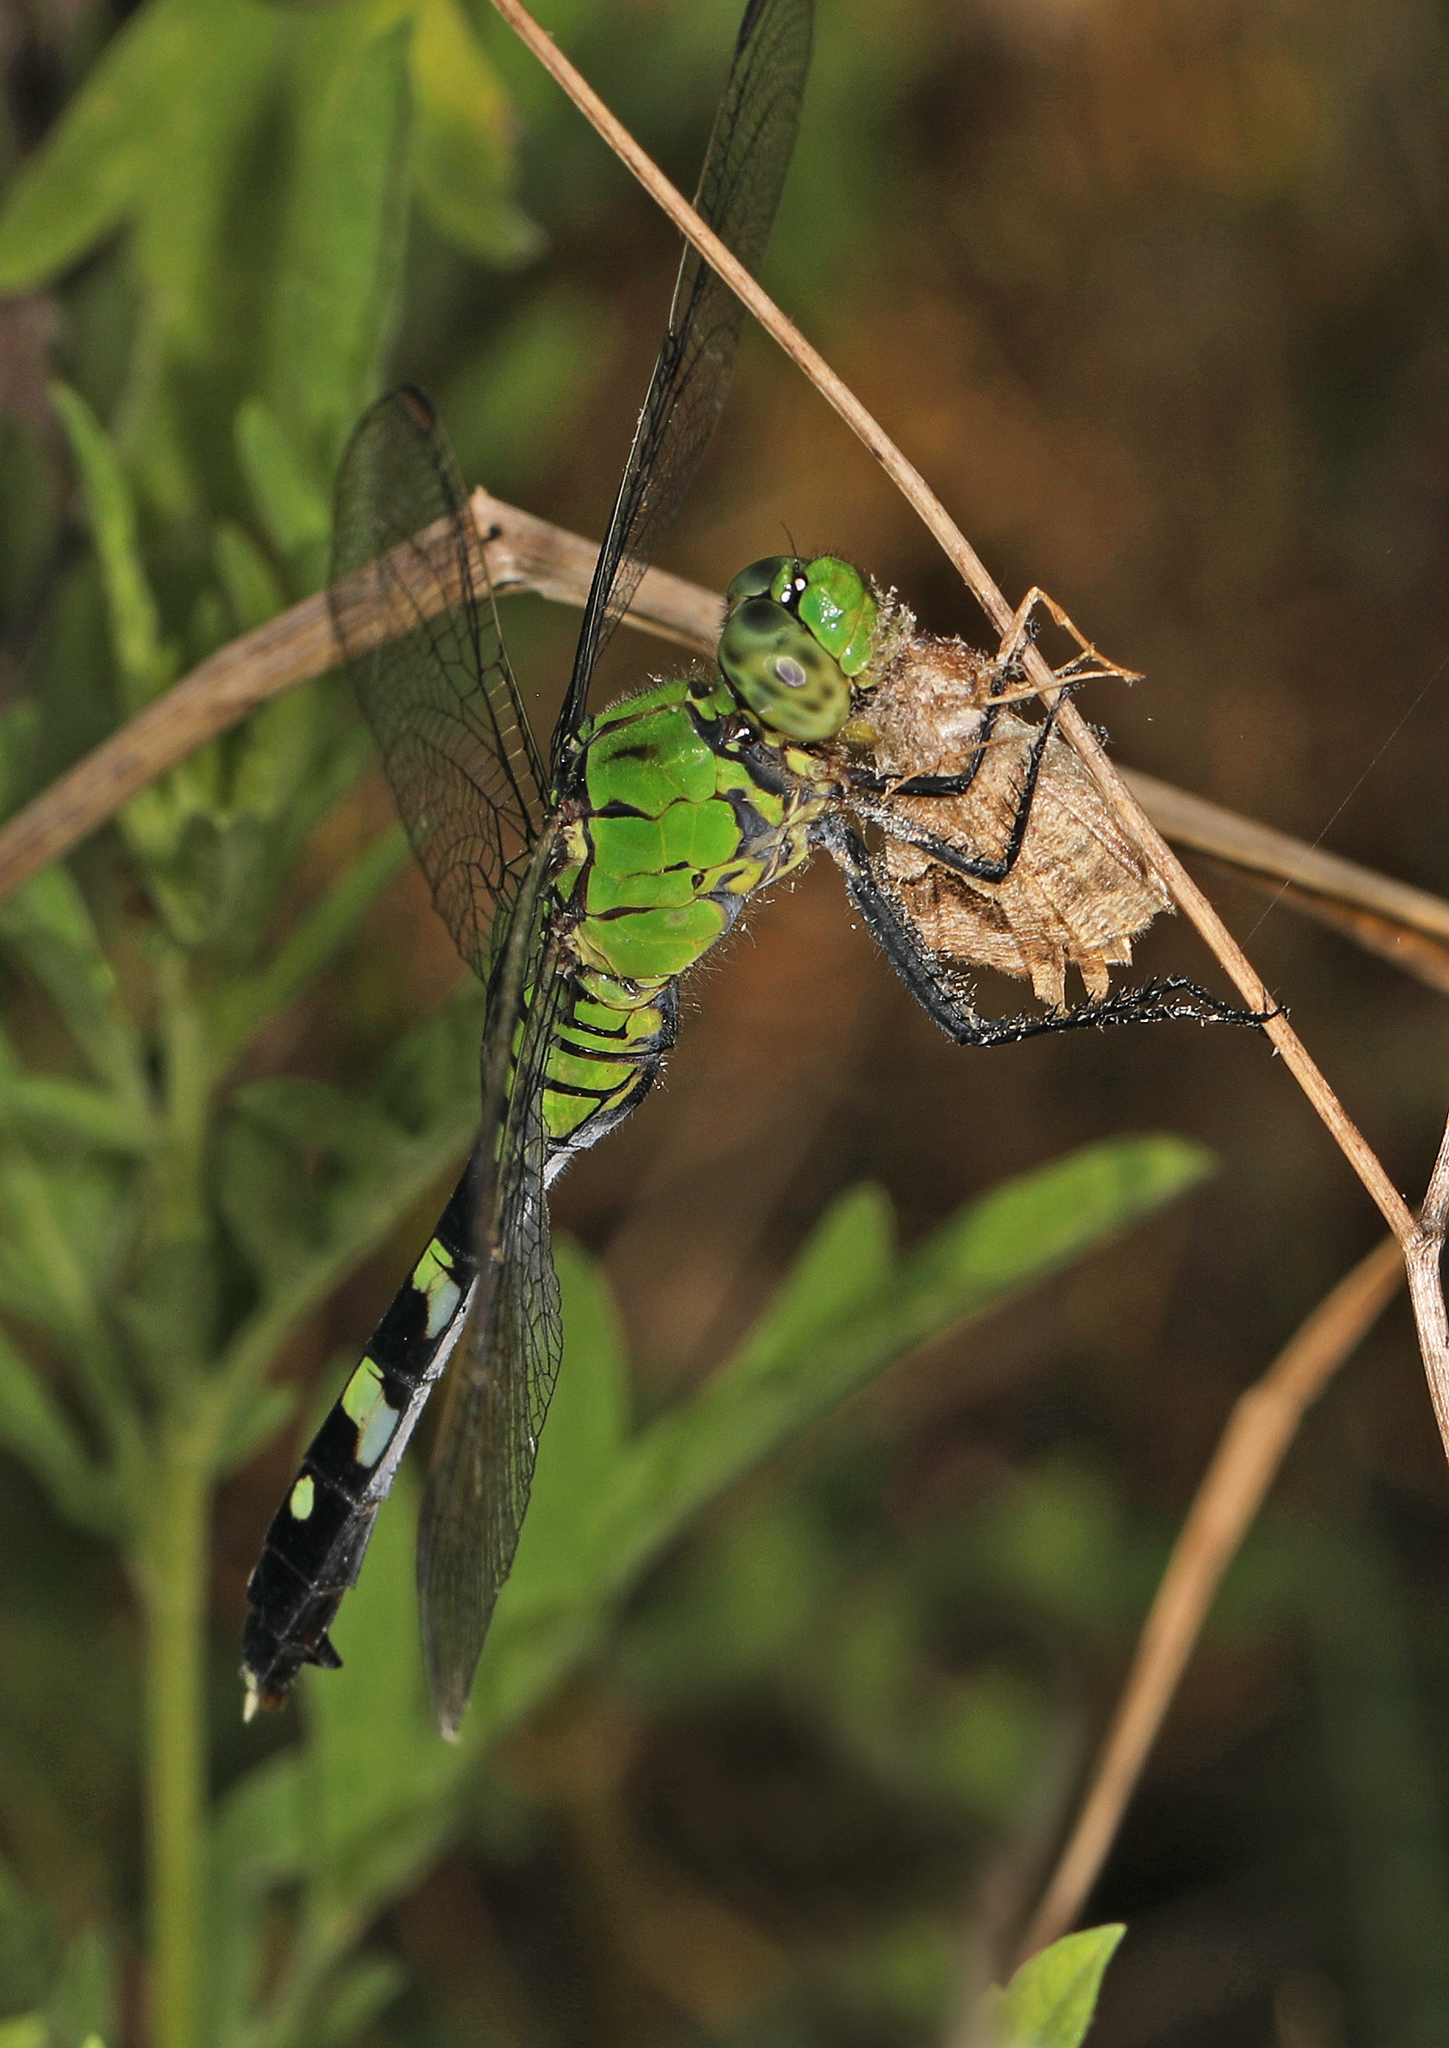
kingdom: Animalia
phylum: Arthropoda
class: Insecta
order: Odonata
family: Libellulidae
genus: Erythemis
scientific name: Erythemis simplicicollis
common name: Eastern pondhawk
